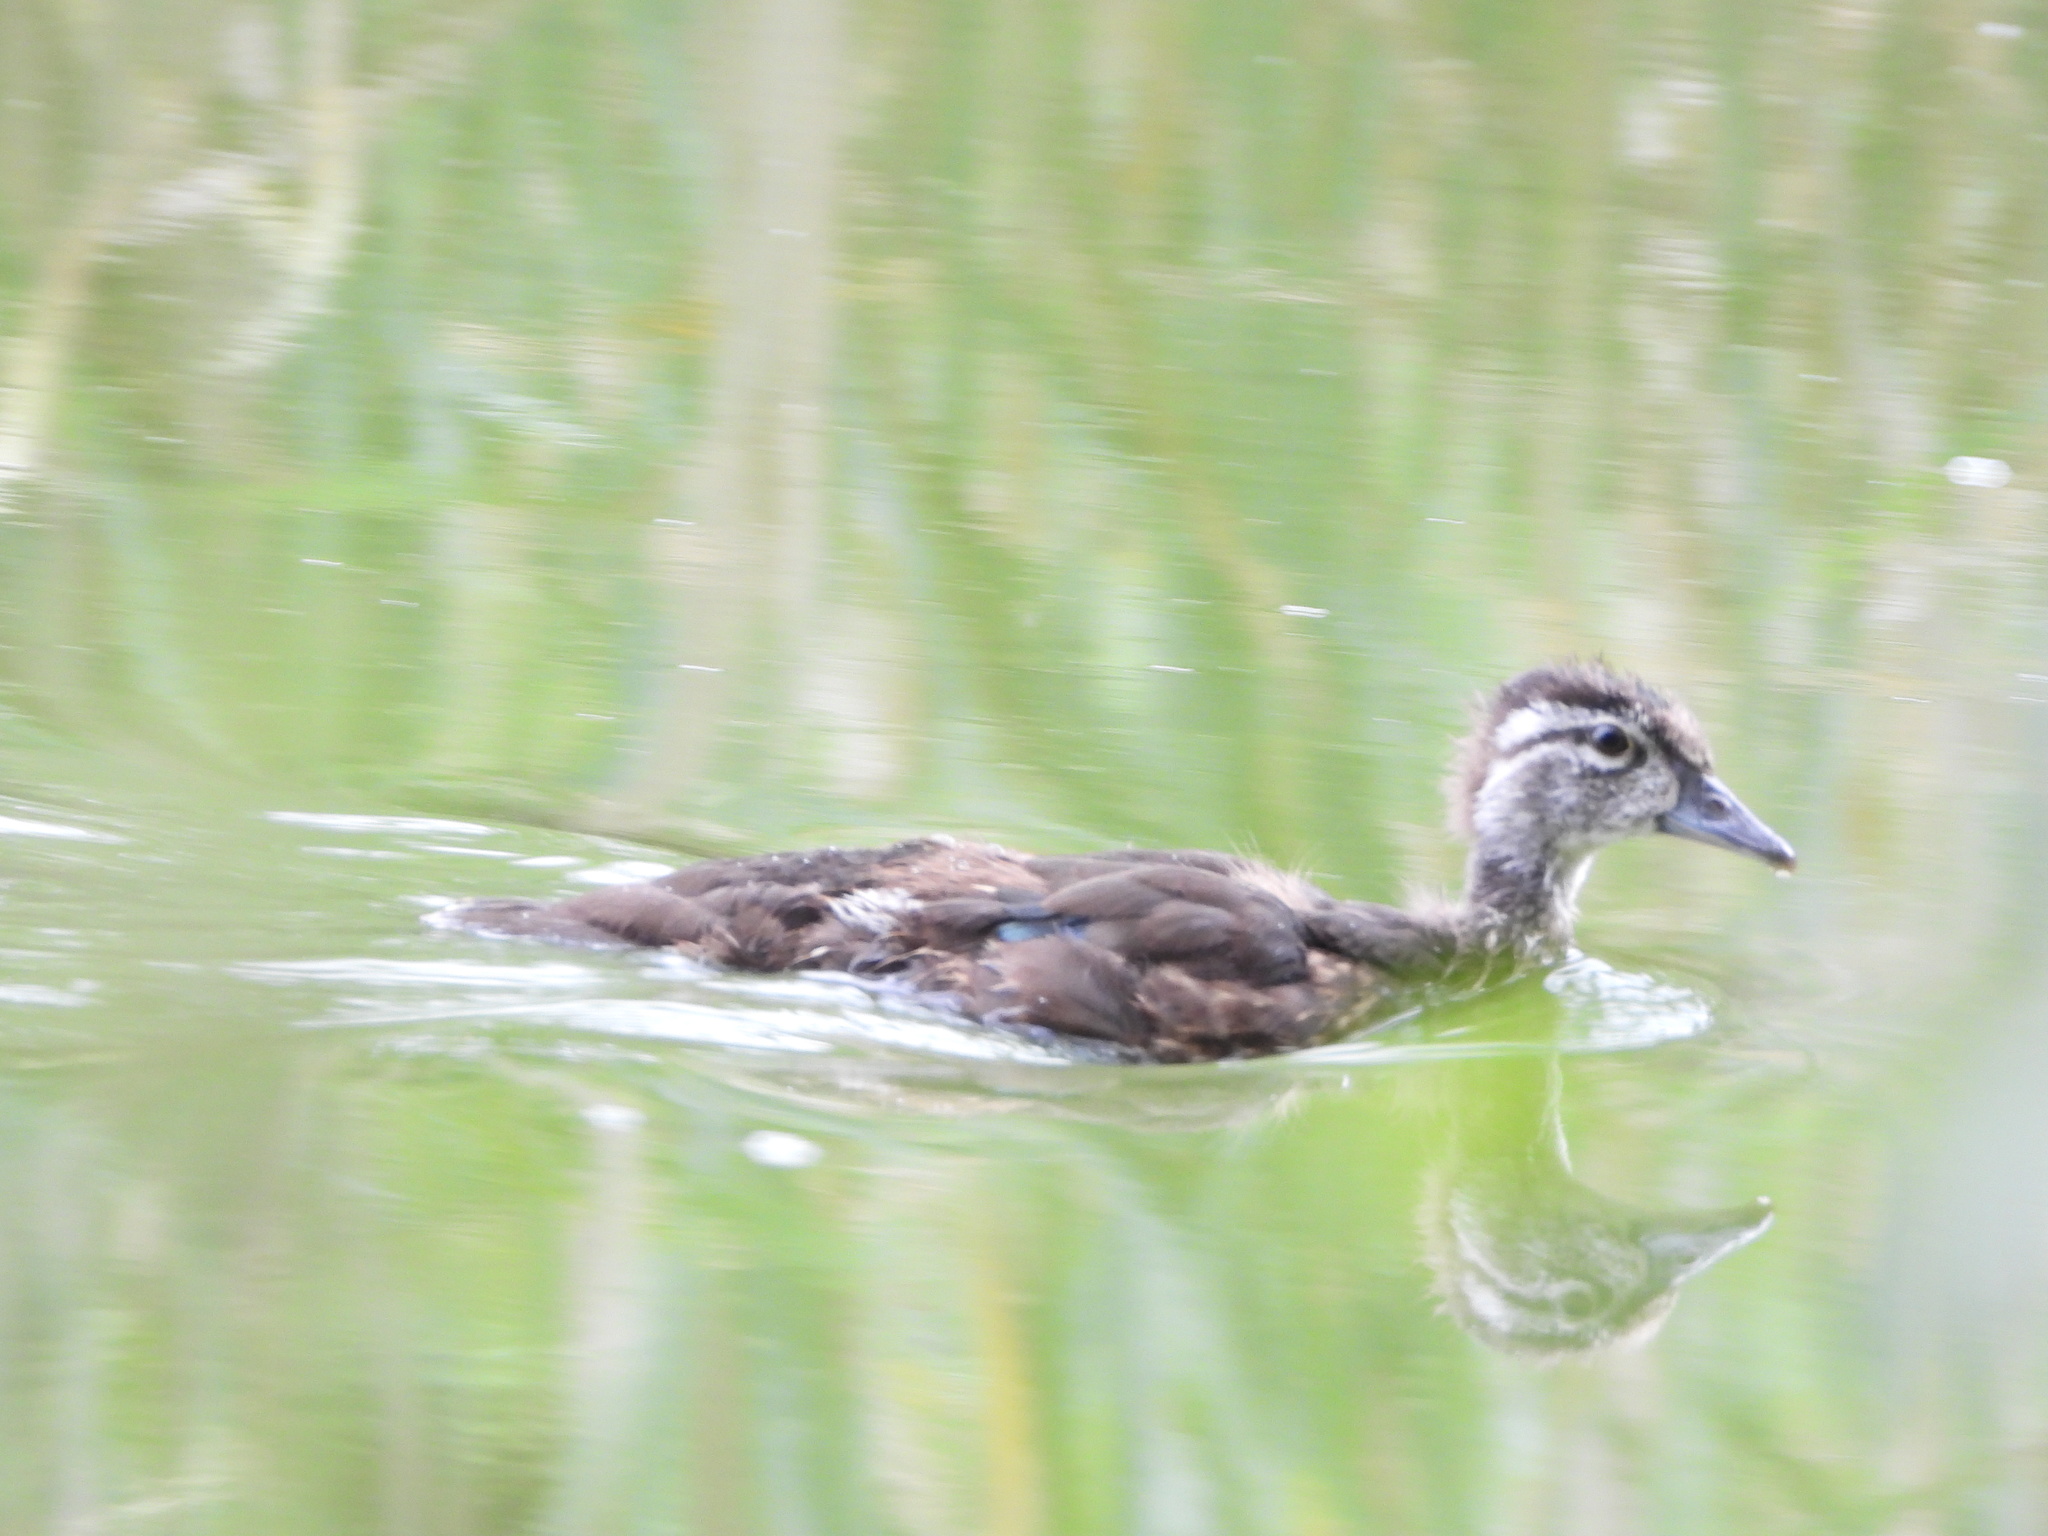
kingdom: Animalia
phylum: Chordata
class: Aves
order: Anseriformes
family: Anatidae
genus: Aix
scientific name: Aix sponsa
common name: Wood duck
